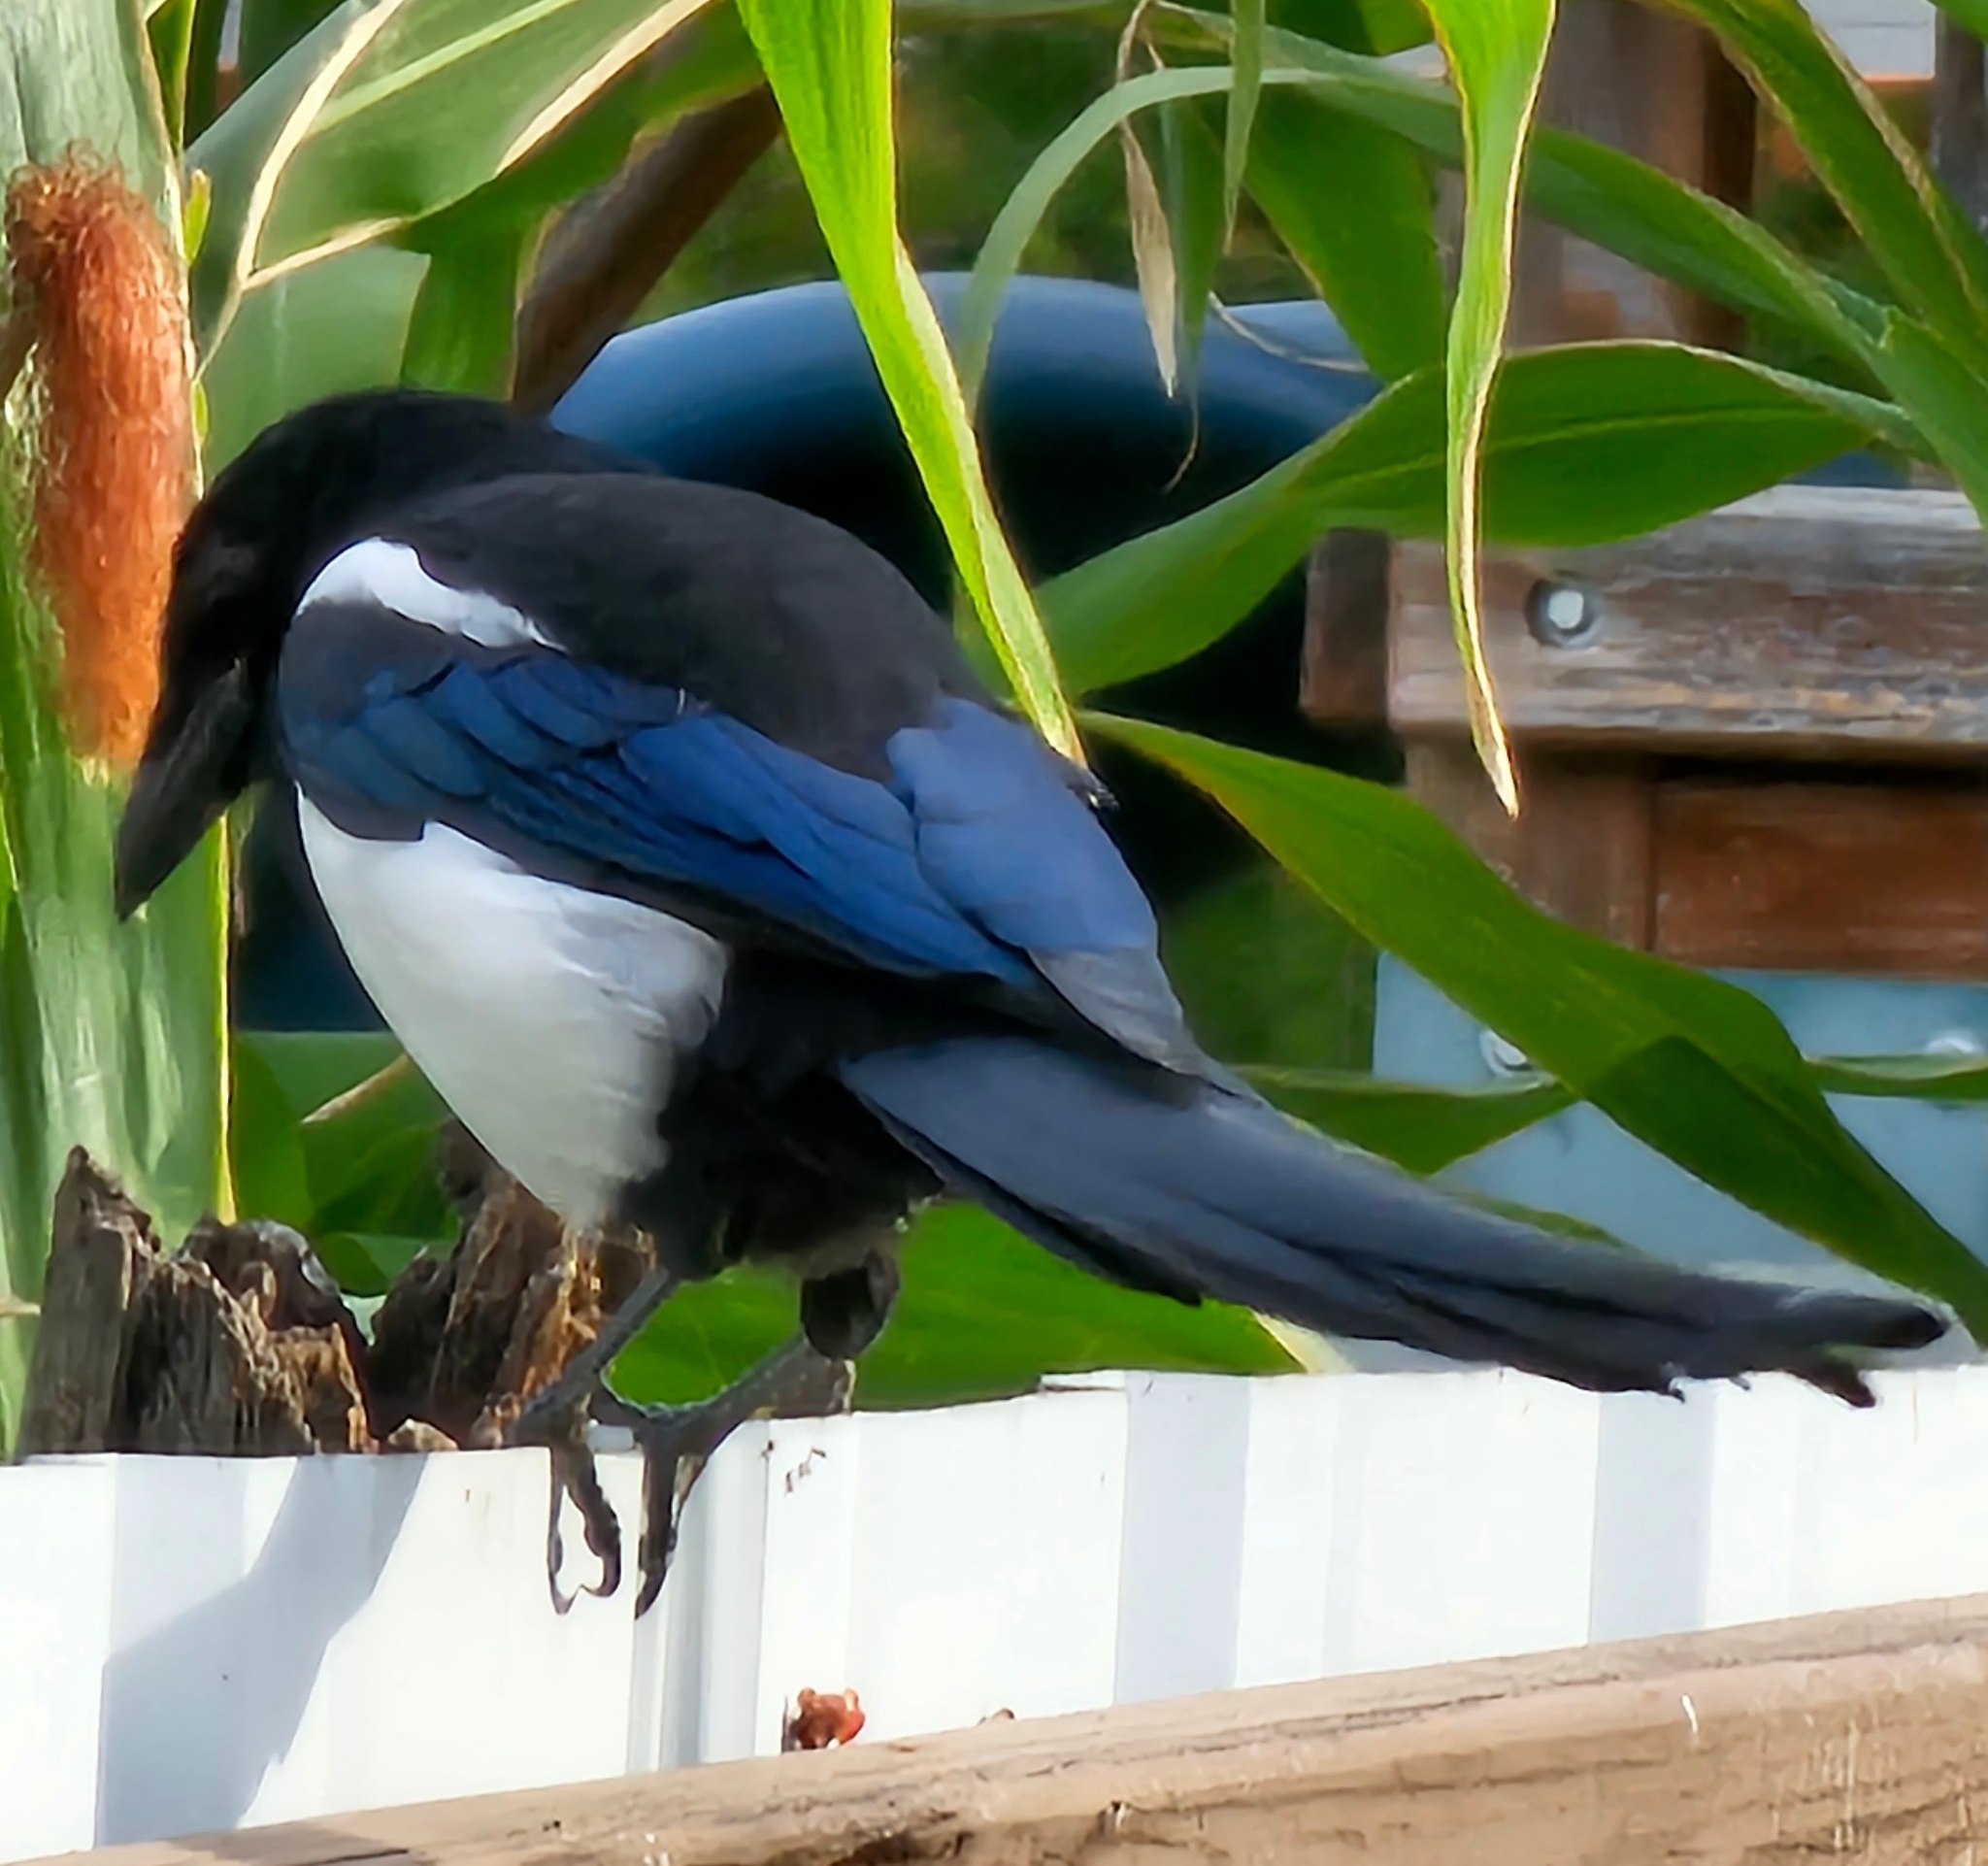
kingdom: Animalia
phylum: Chordata
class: Aves
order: Passeriformes
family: Corvidae
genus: Pica
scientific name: Pica hudsonia
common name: Black-billed magpie
